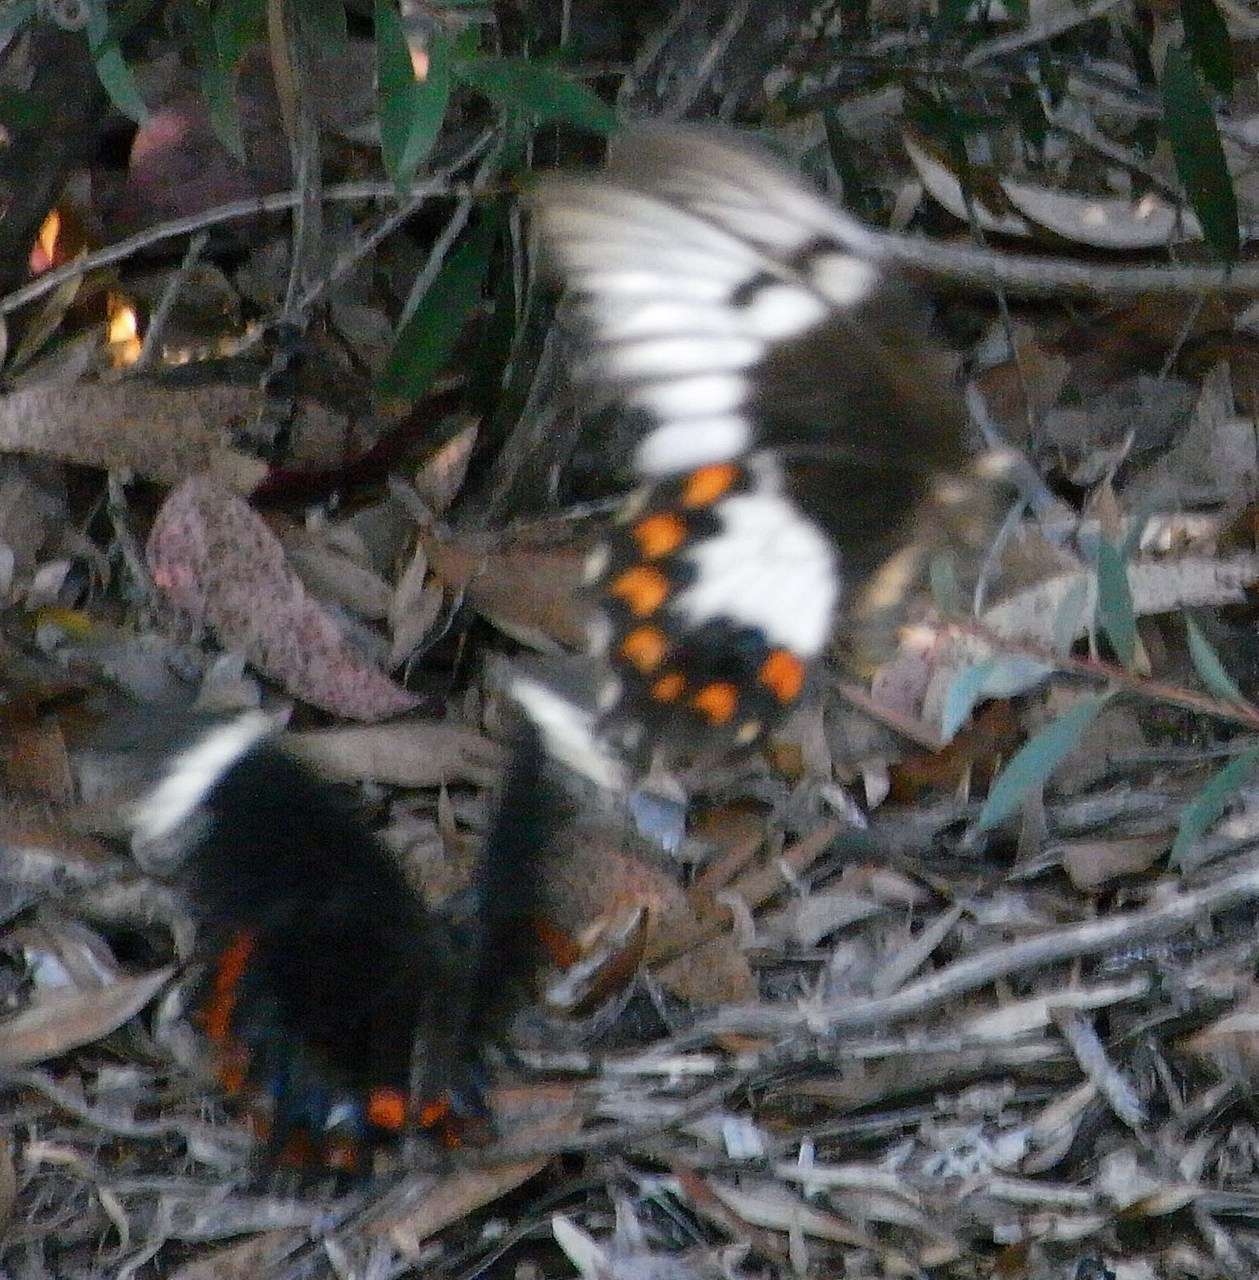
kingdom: Animalia
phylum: Arthropoda
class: Insecta
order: Lepidoptera
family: Papilionidae
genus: Papilio
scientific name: Papilio aegeus
